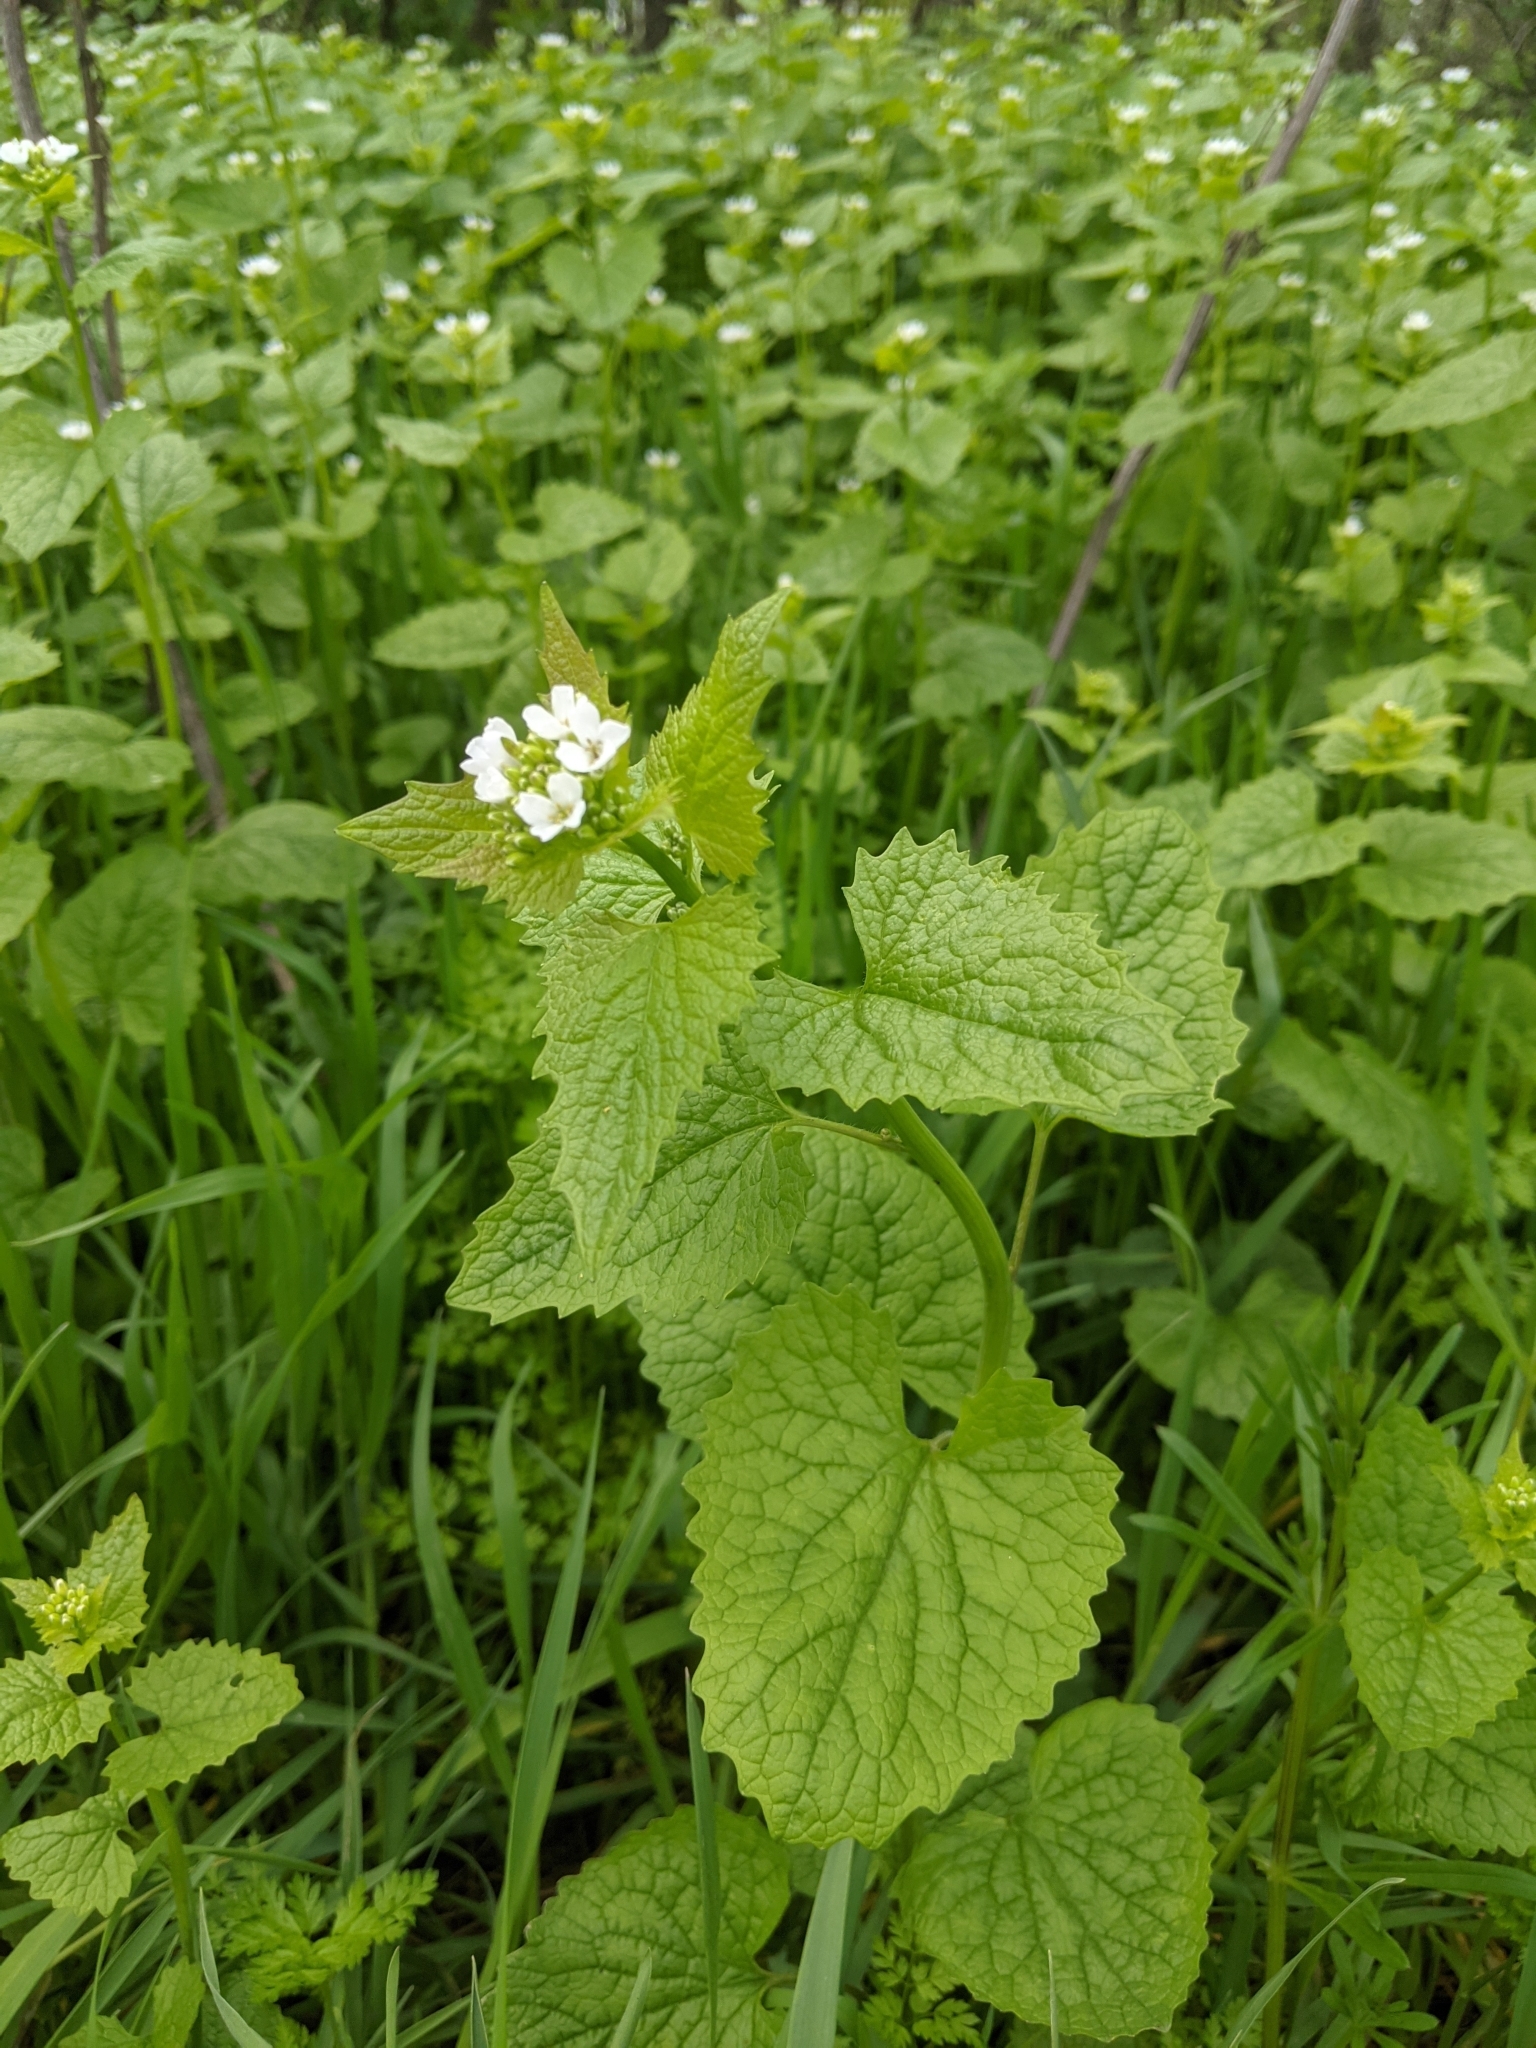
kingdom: Plantae
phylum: Tracheophyta
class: Magnoliopsida
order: Brassicales
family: Brassicaceae
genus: Alliaria
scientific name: Alliaria petiolata
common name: Garlic mustard
